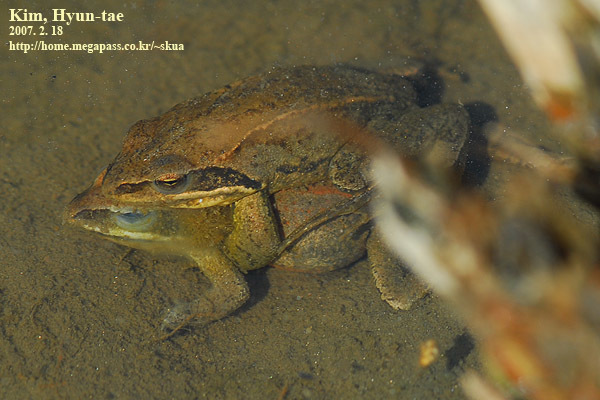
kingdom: Animalia
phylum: Chordata
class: Amphibia
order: Anura
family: Ranidae
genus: Rana
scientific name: Rana coreana
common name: Korean brown frog
